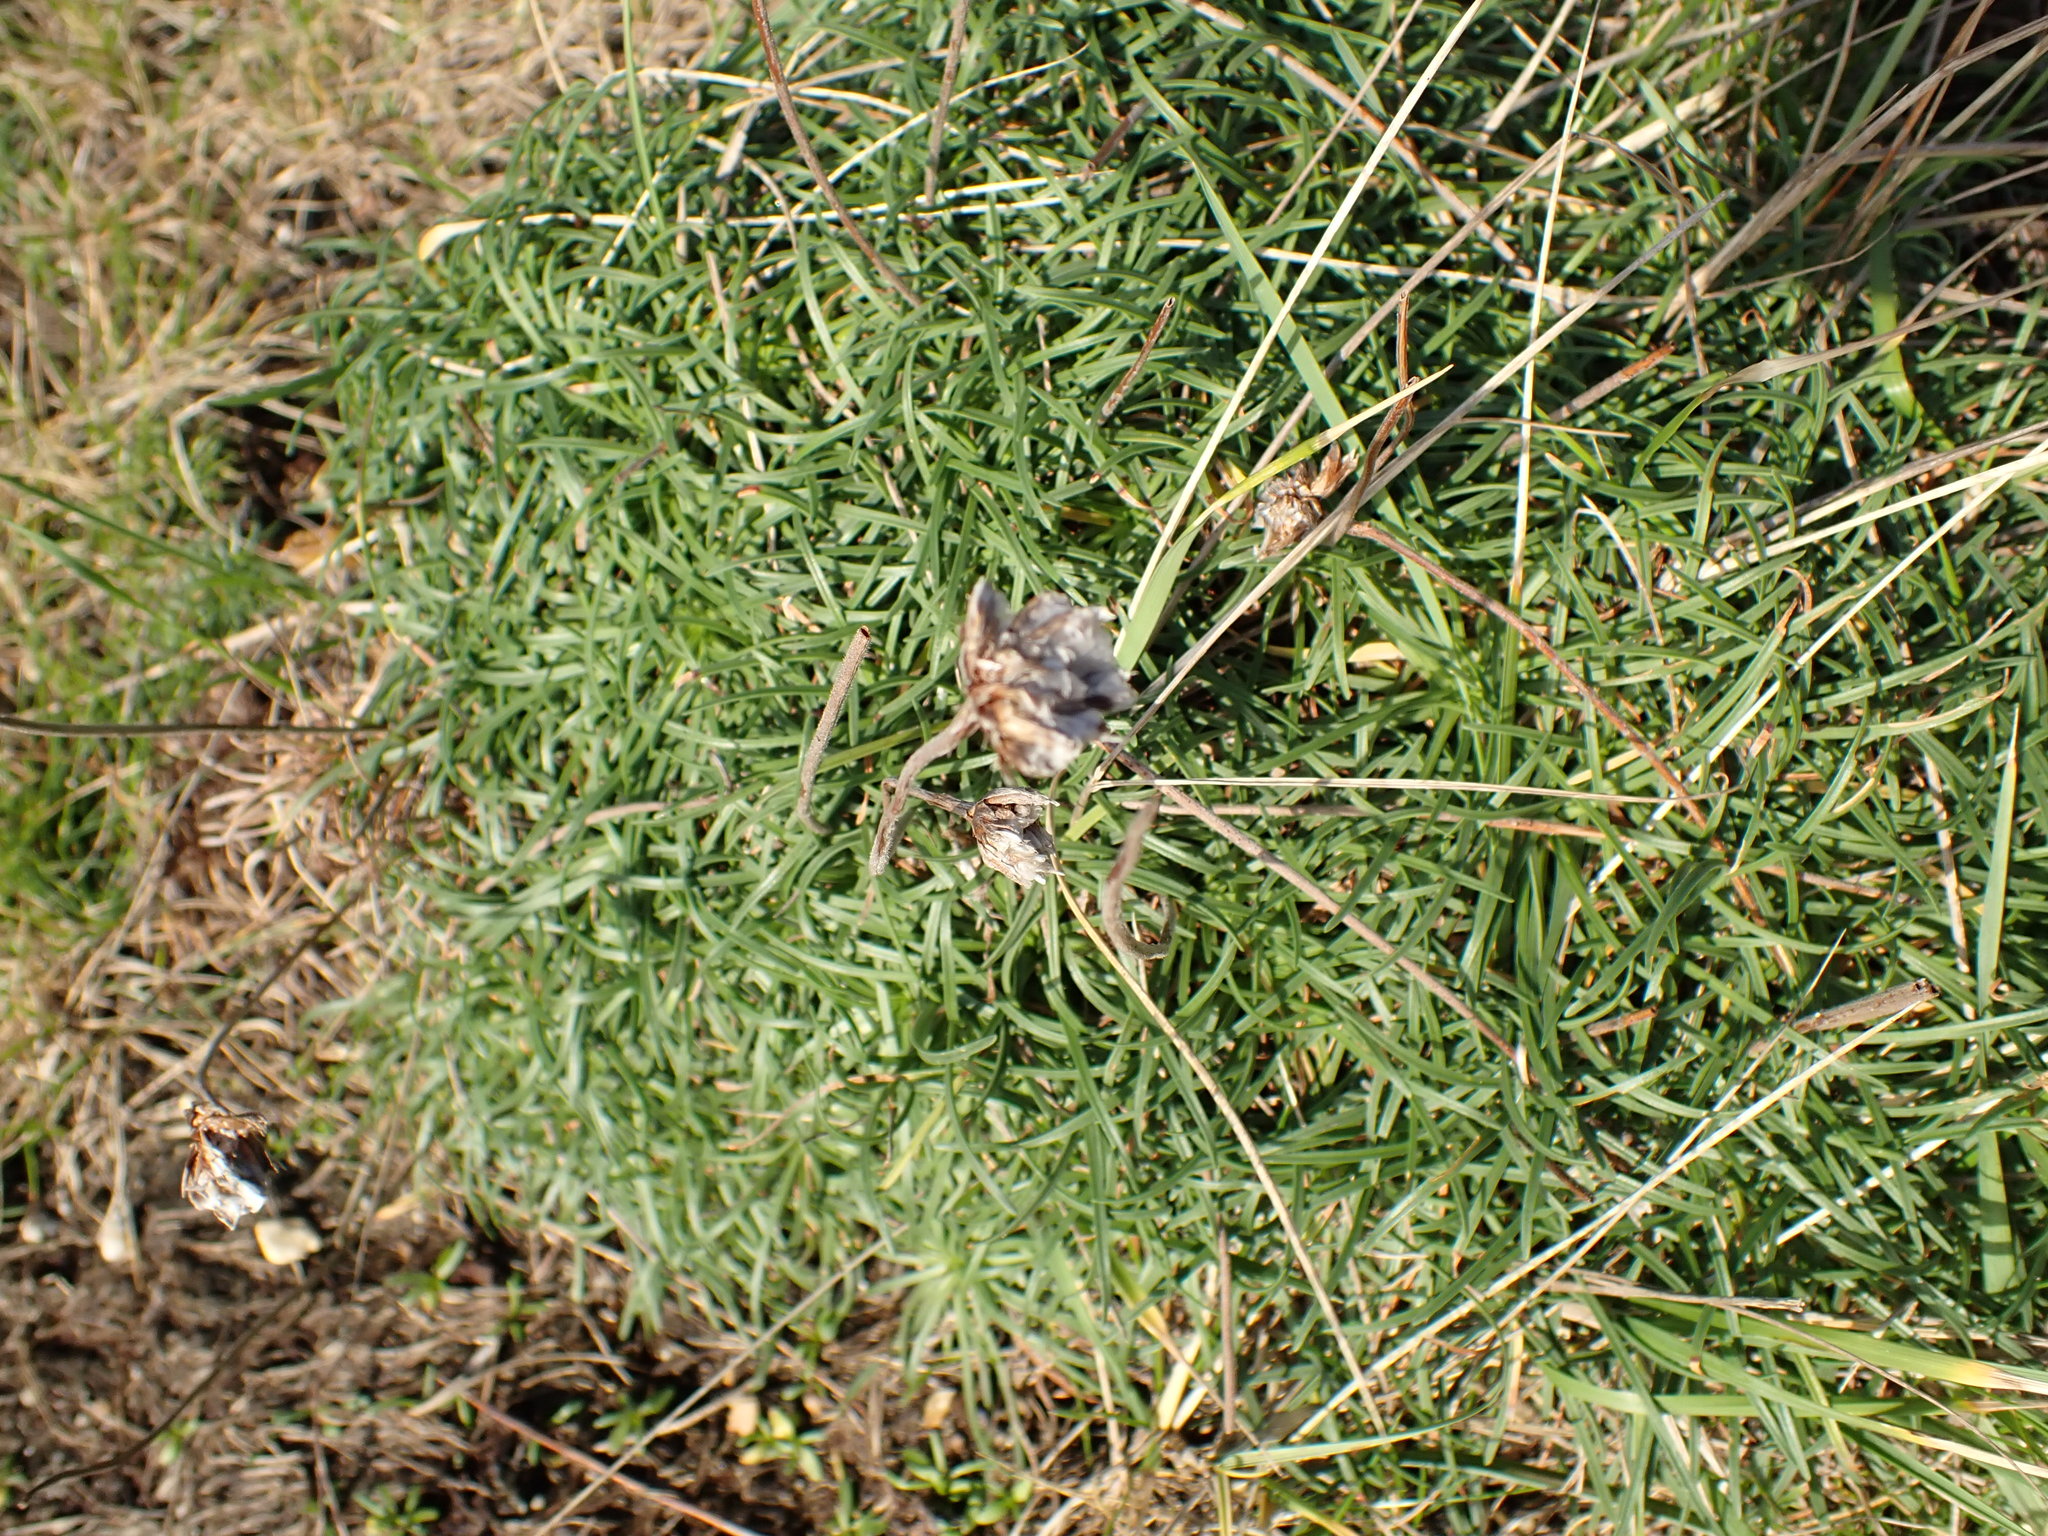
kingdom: Plantae
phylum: Tracheophyta
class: Magnoliopsida
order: Caryophyllales
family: Plumbaginaceae
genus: Armeria
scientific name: Armeria maritima
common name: Thrift
